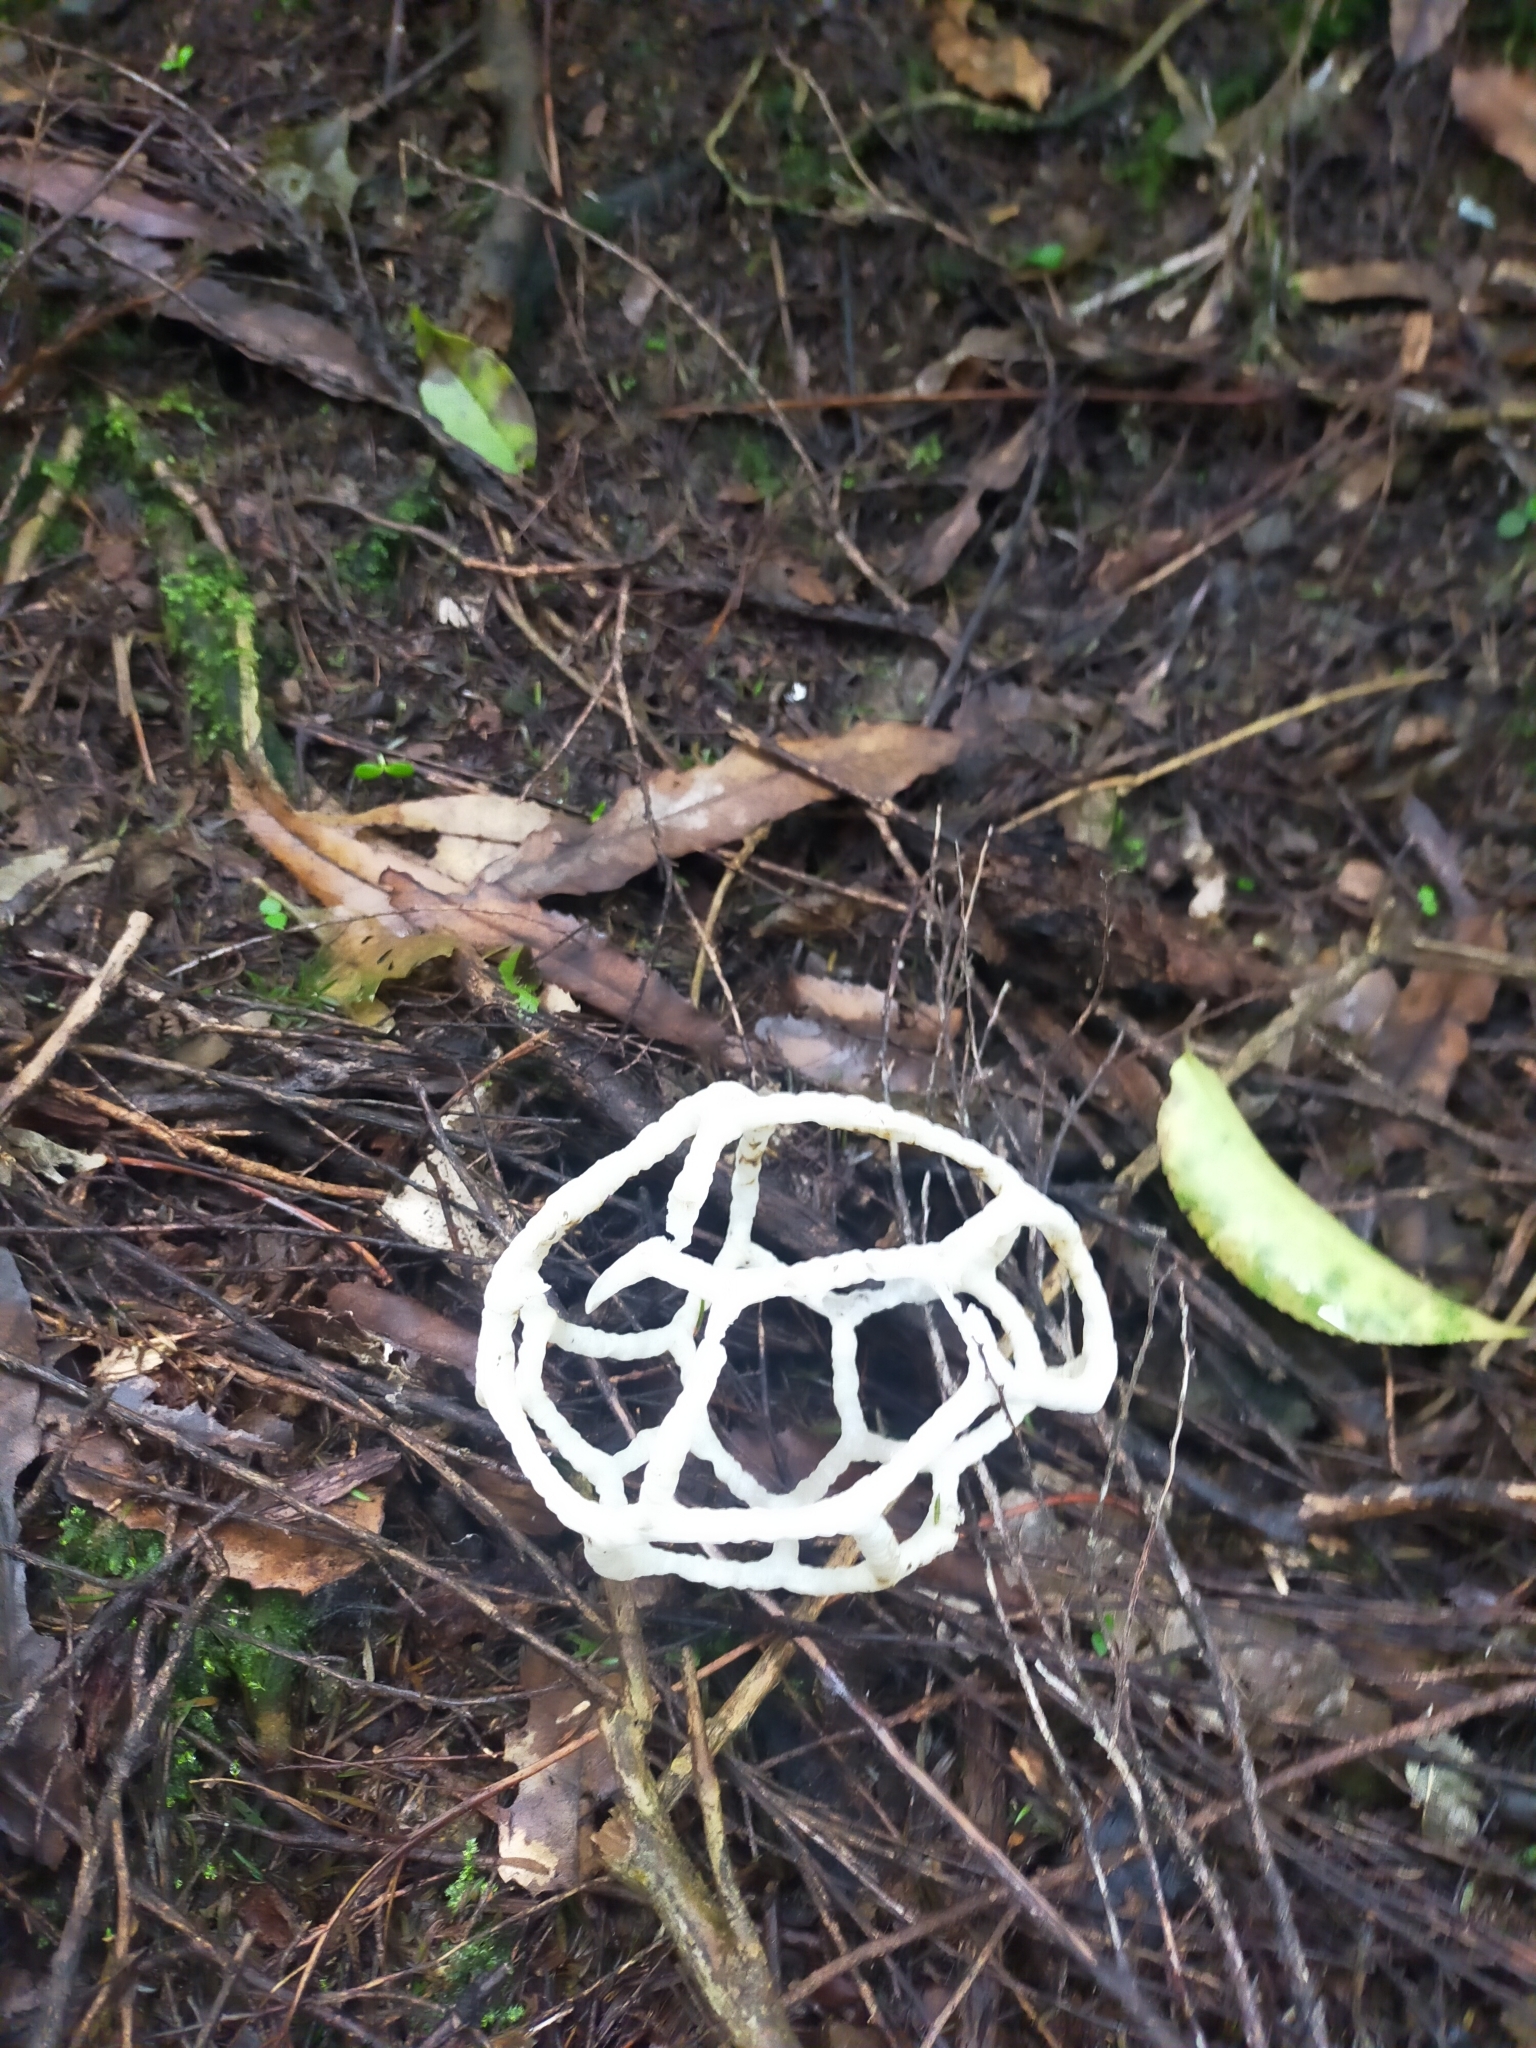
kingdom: Fungi
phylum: Basidiomycota
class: Agaricomycetes
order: Phallales
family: Phallaceae
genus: Ileodictyon
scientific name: Ileodictyon cibarium
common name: Basket fungus
